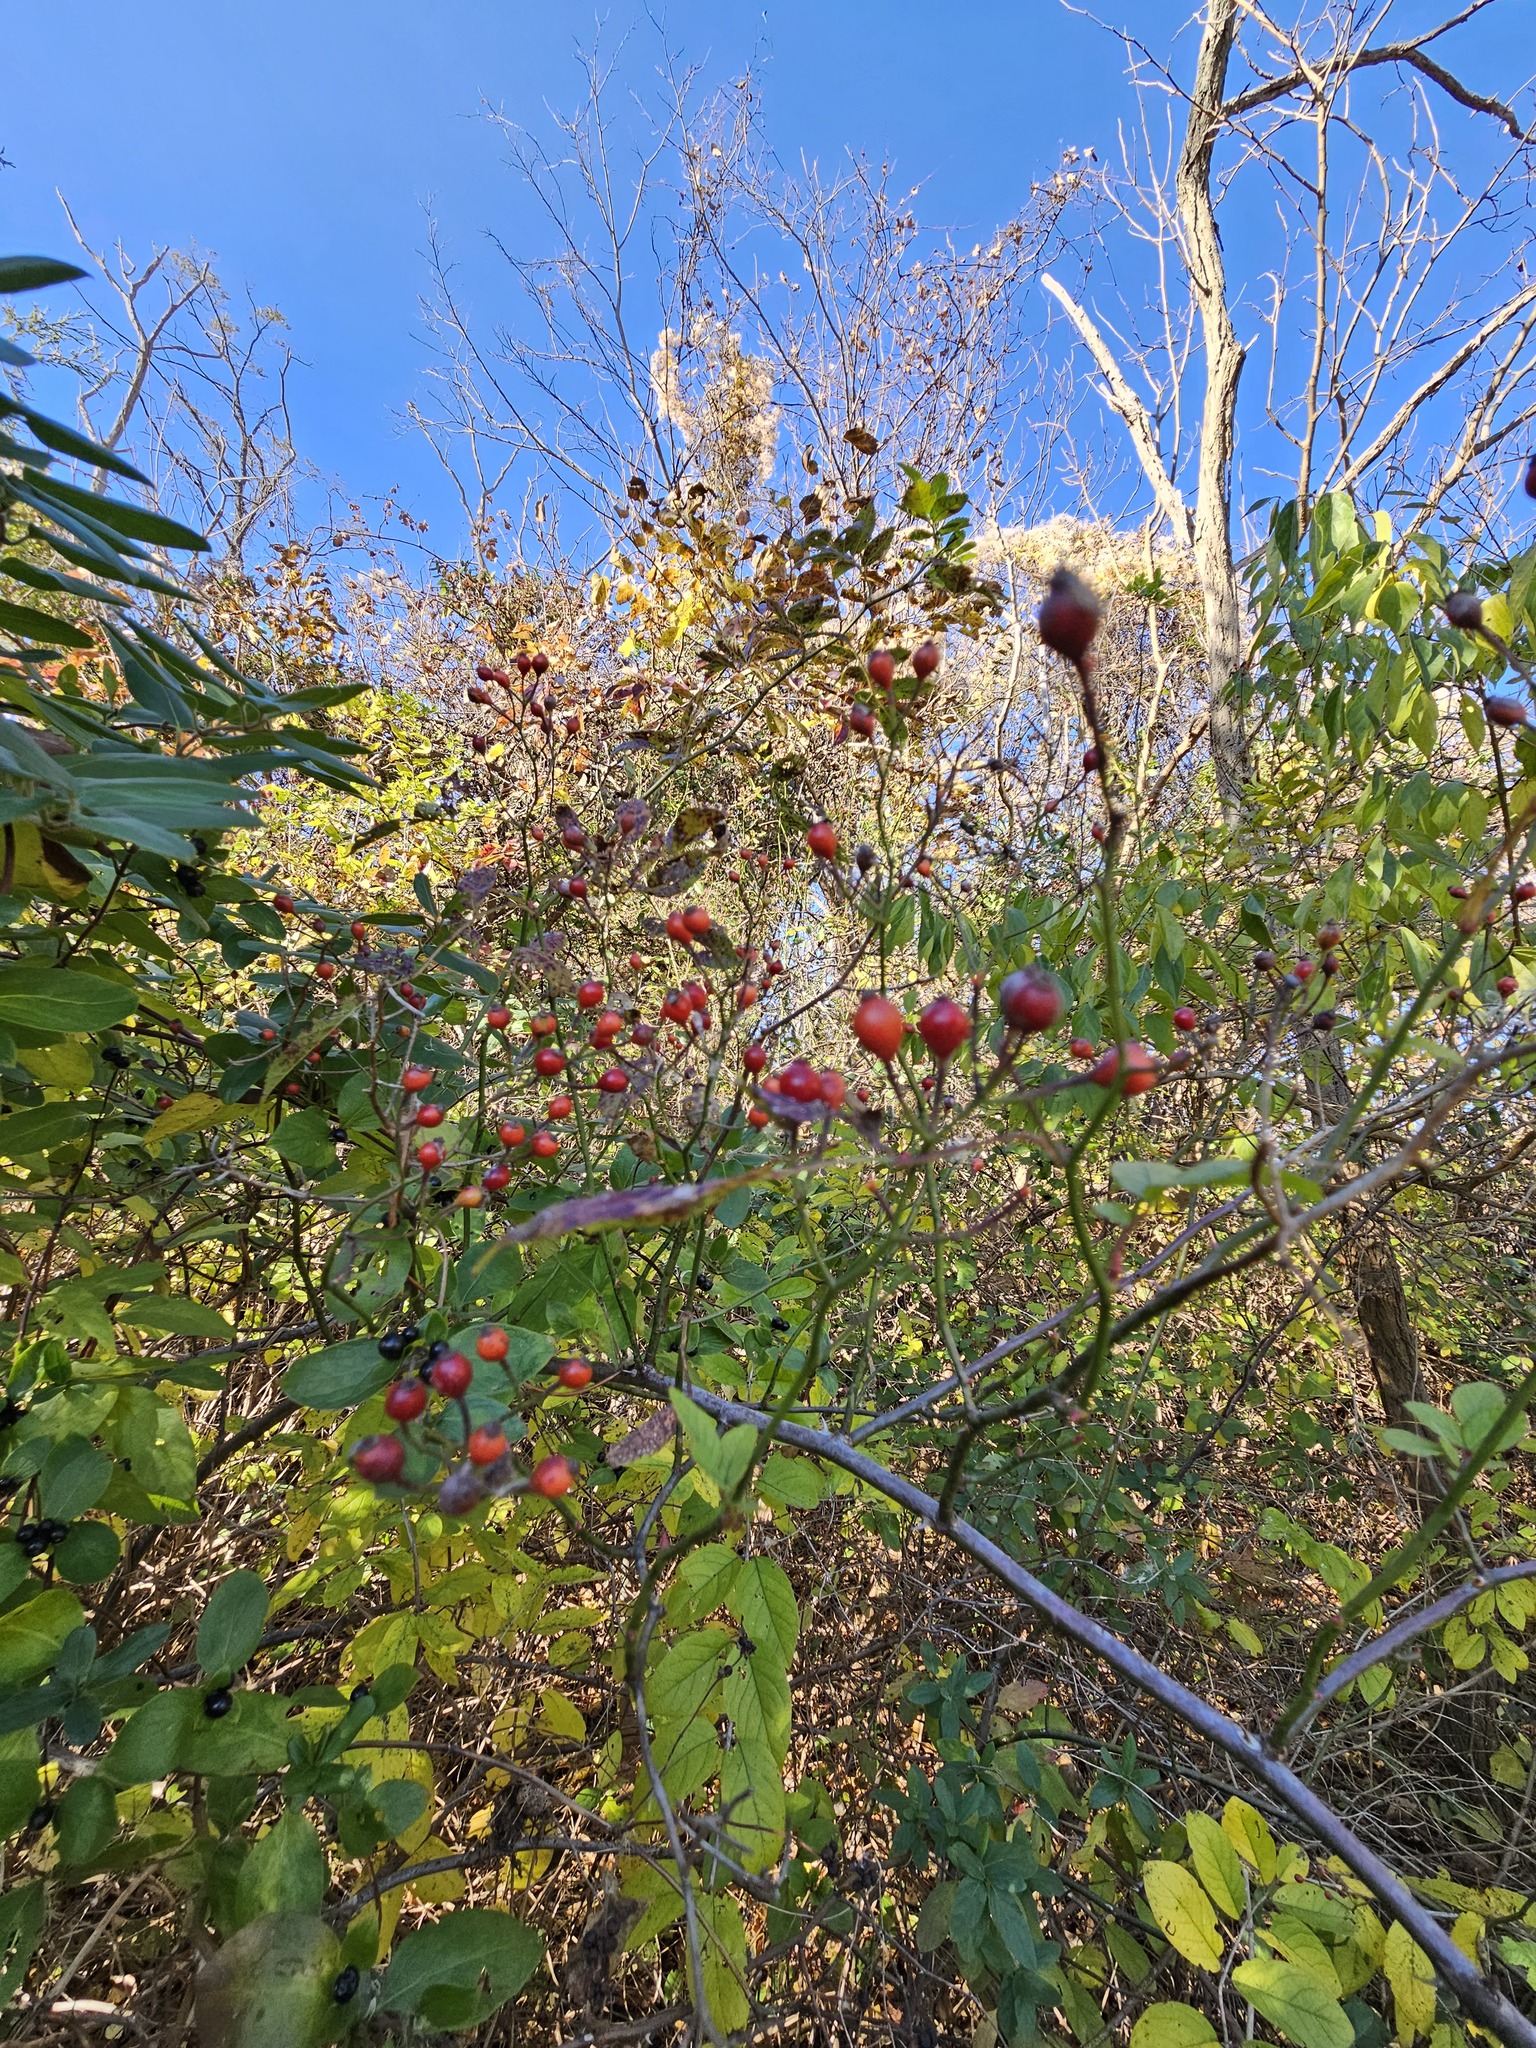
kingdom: Plantae
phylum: Tracheophyta
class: Magnoliopsida
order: Rosales
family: Rosaceae
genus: Rosa
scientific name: Rosa multiflora
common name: Multiflora rose
